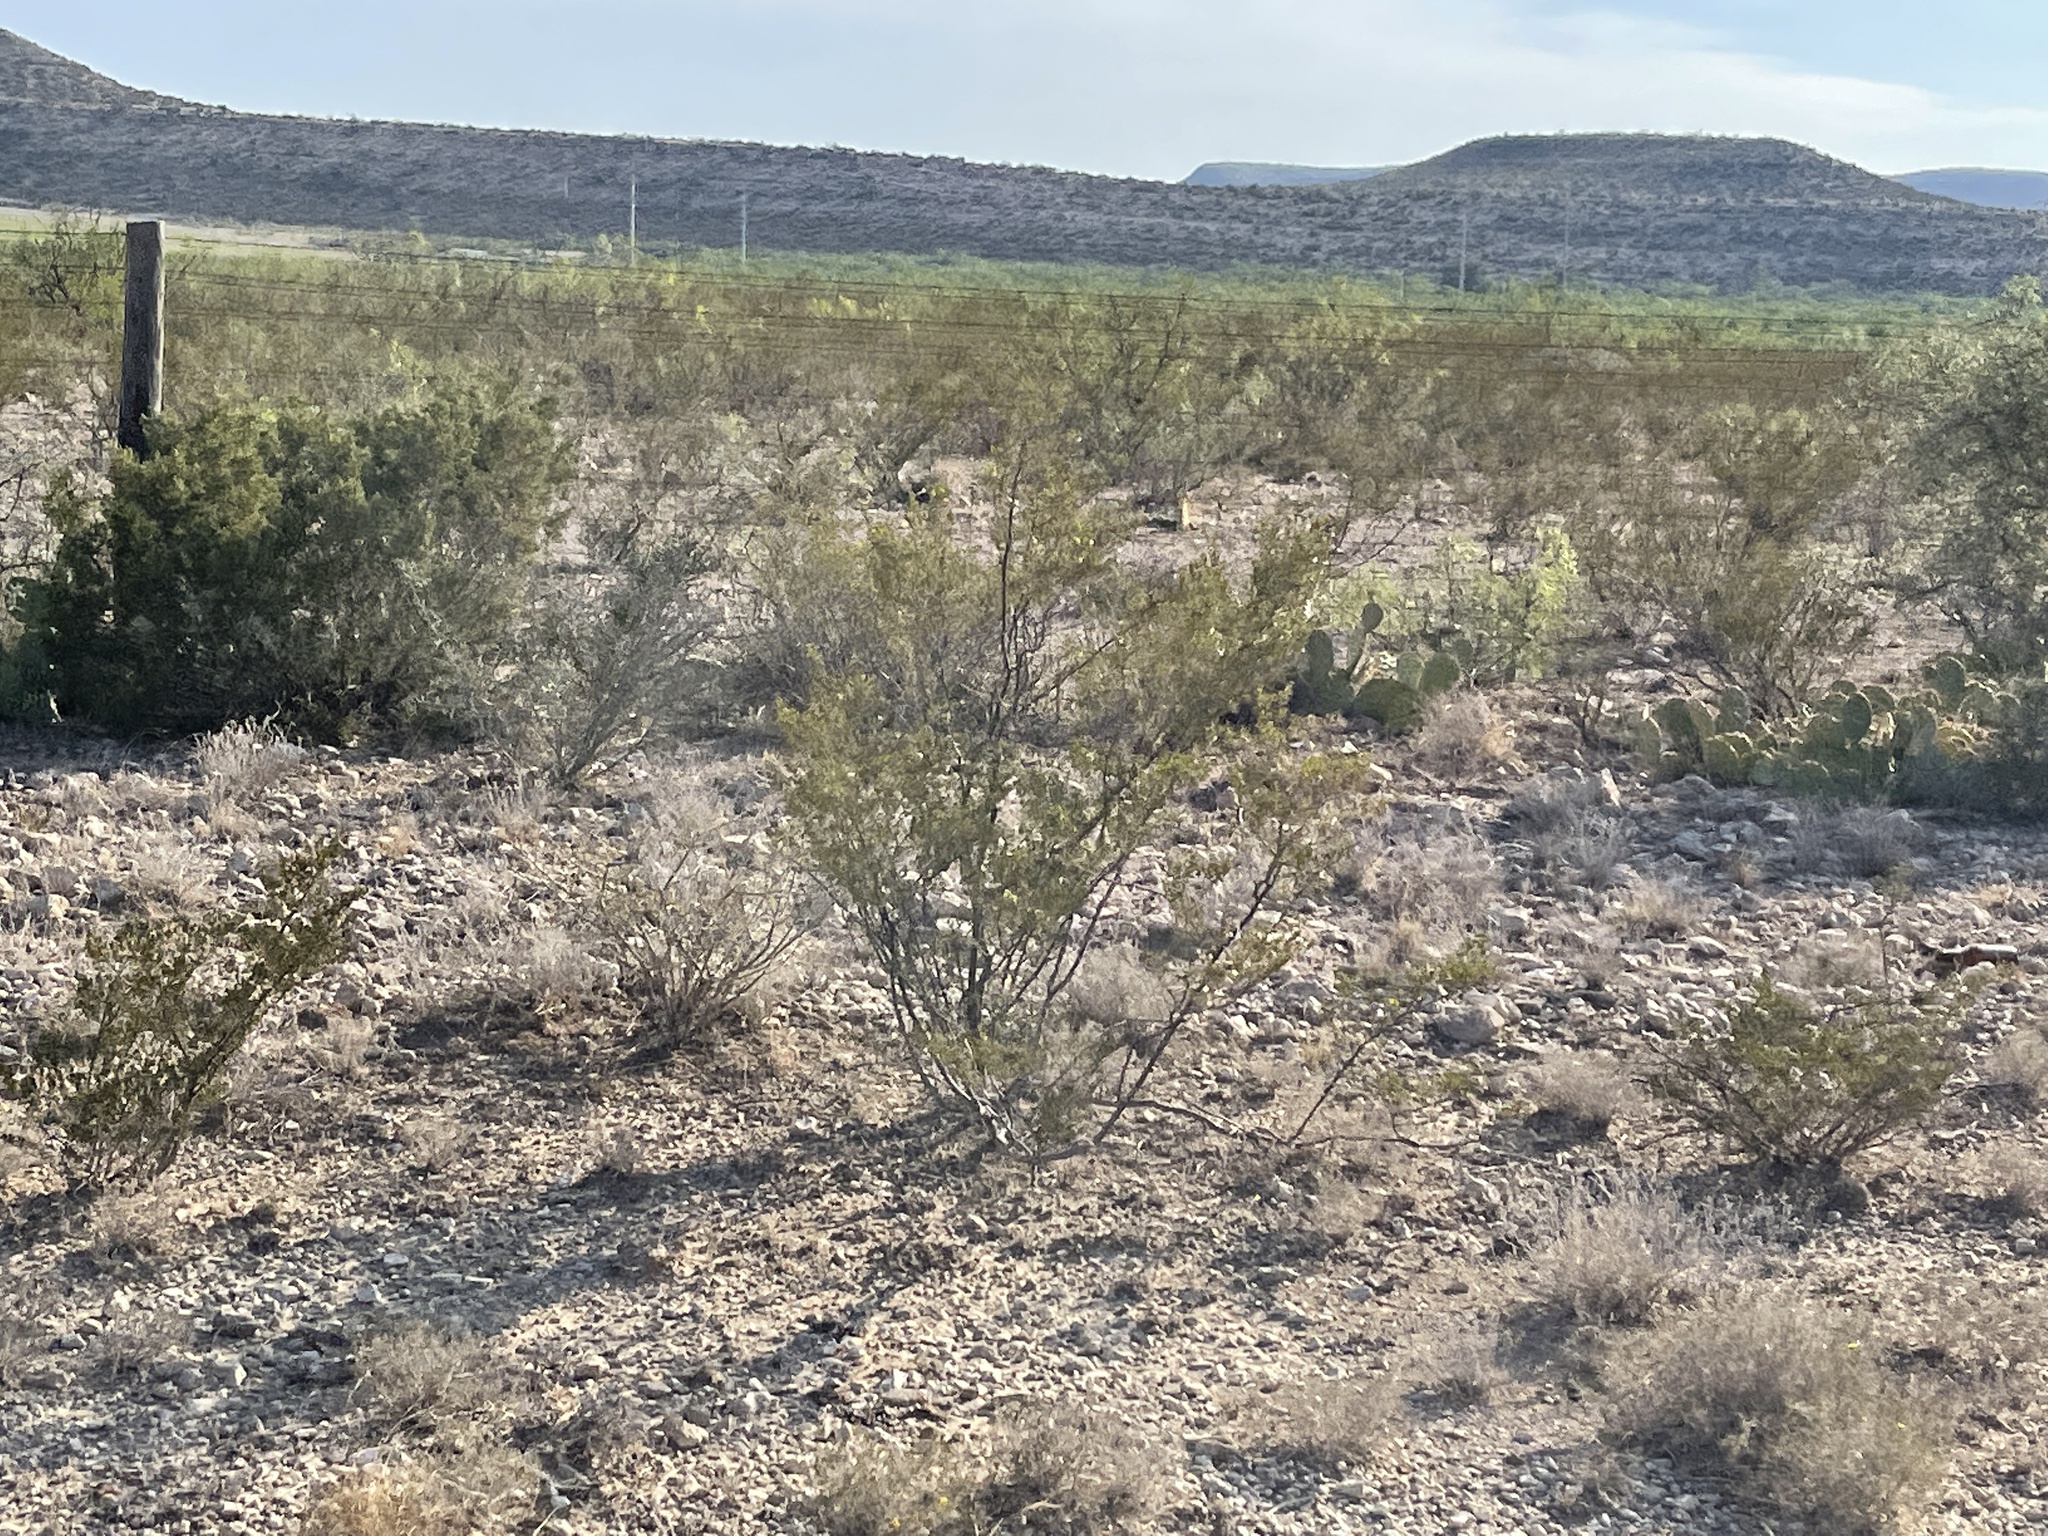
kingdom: Plantae
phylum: Tracheophyta
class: Magnoliopsida
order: Zygophyllales
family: Zygophyllaceae
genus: Larrea
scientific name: Larrea tridentata
